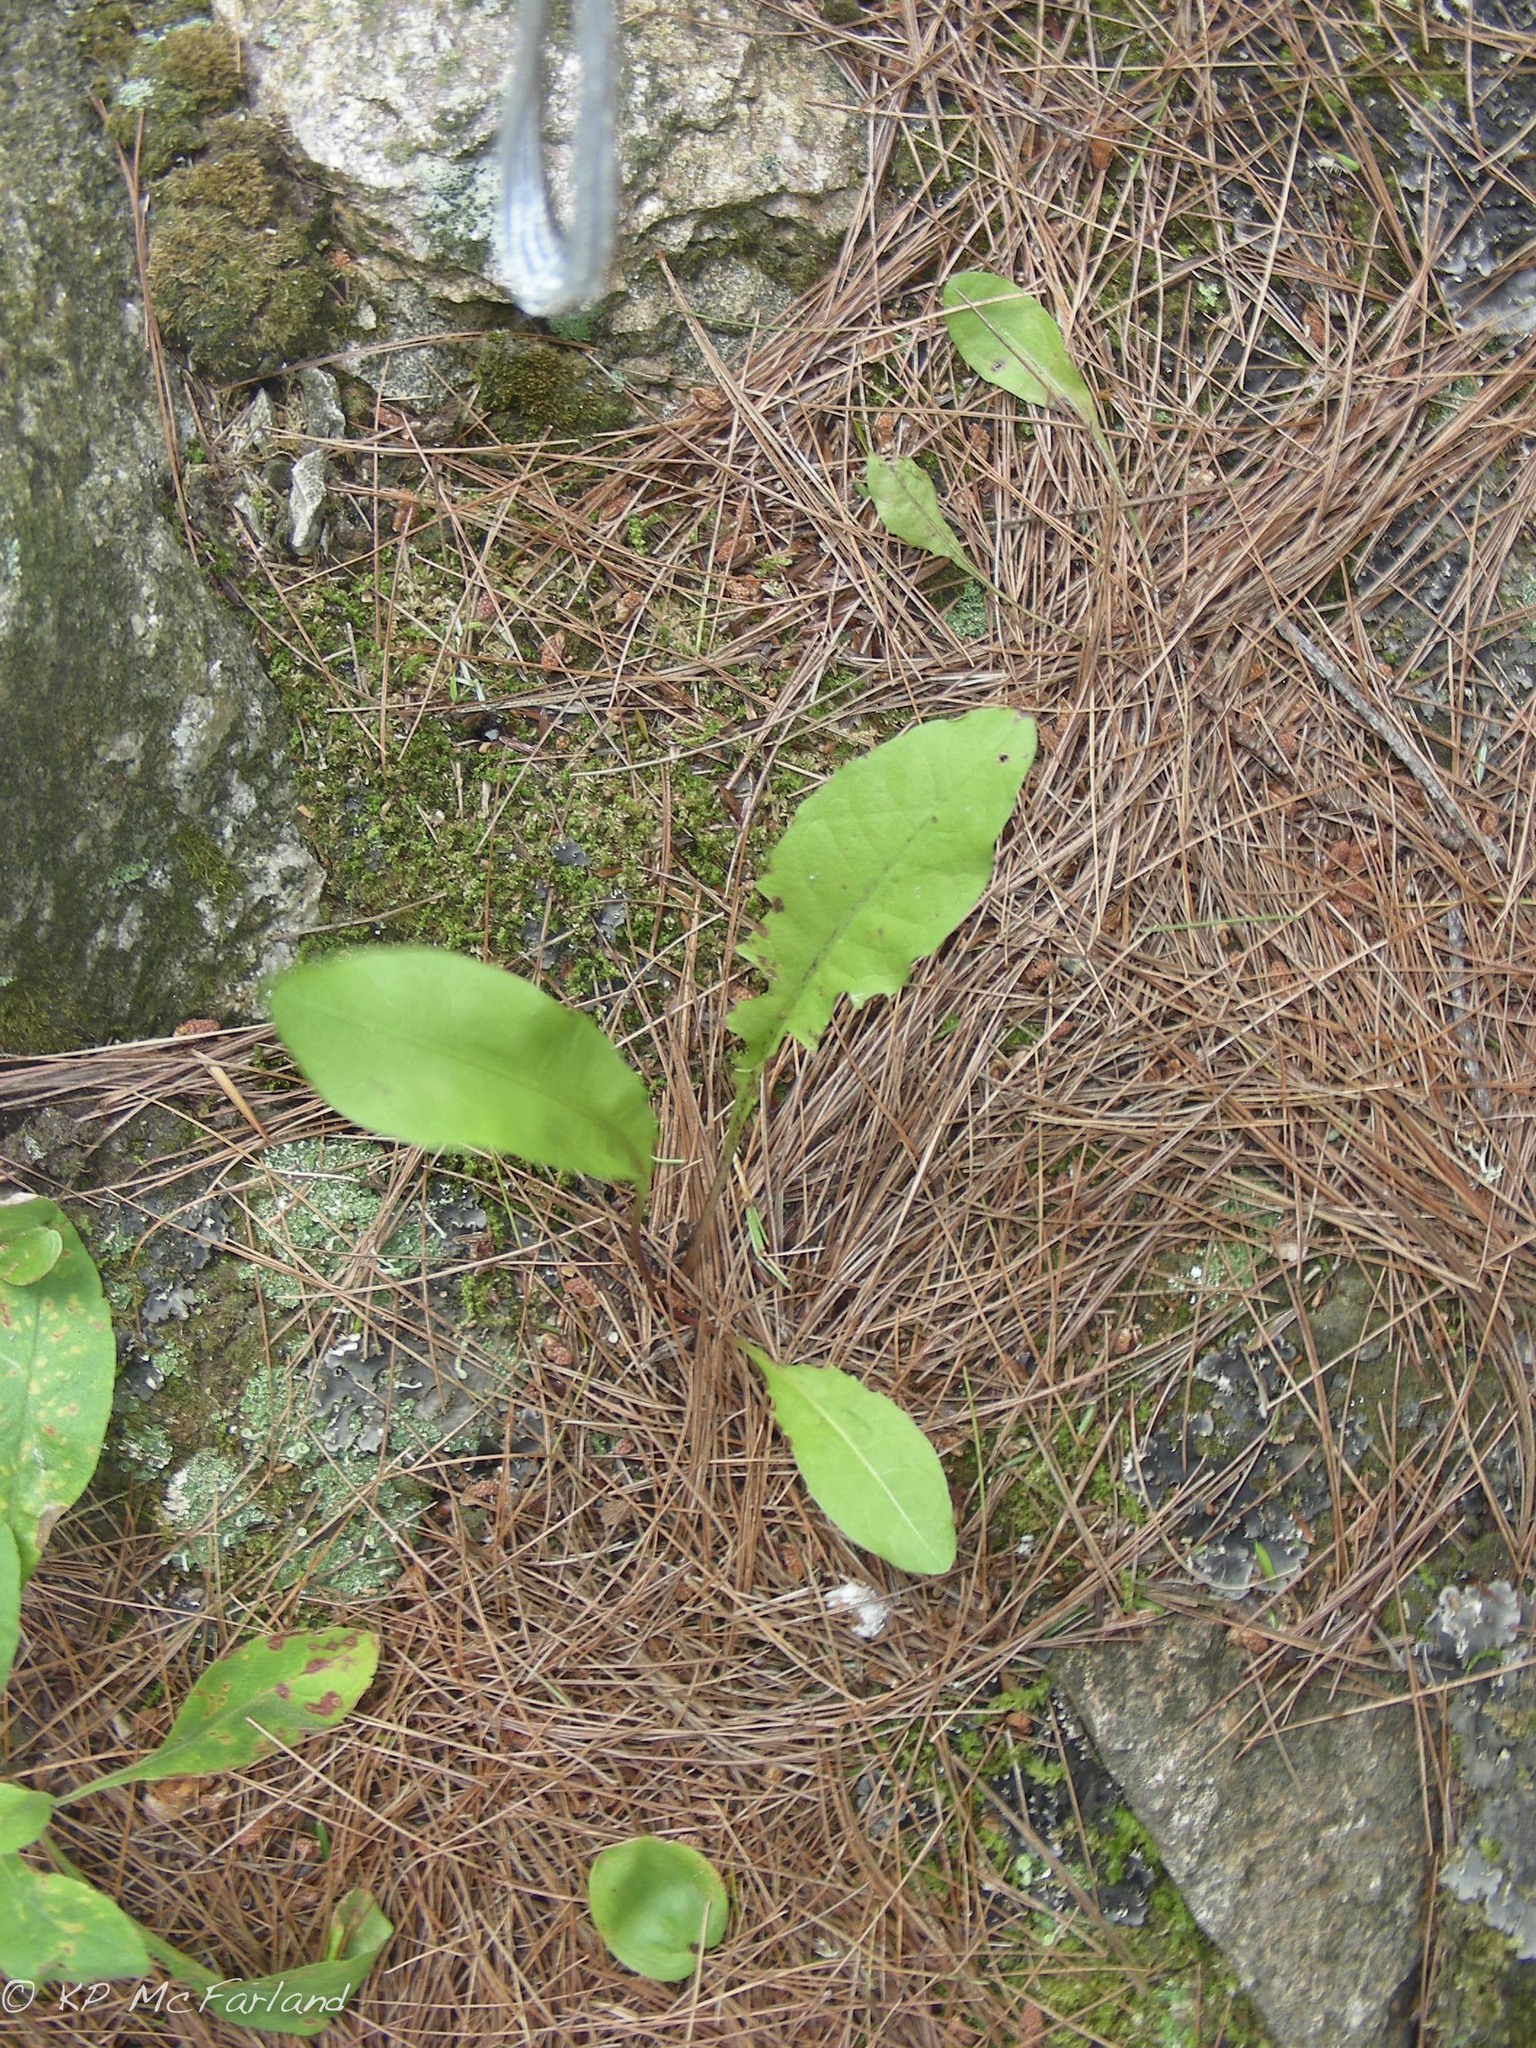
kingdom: Plantae
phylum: Tracheophyta
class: Magnoliopsida
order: Asterales
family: Asteraceae
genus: Taraxacum
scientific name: Taraxacum officinale
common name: Common dandelion
